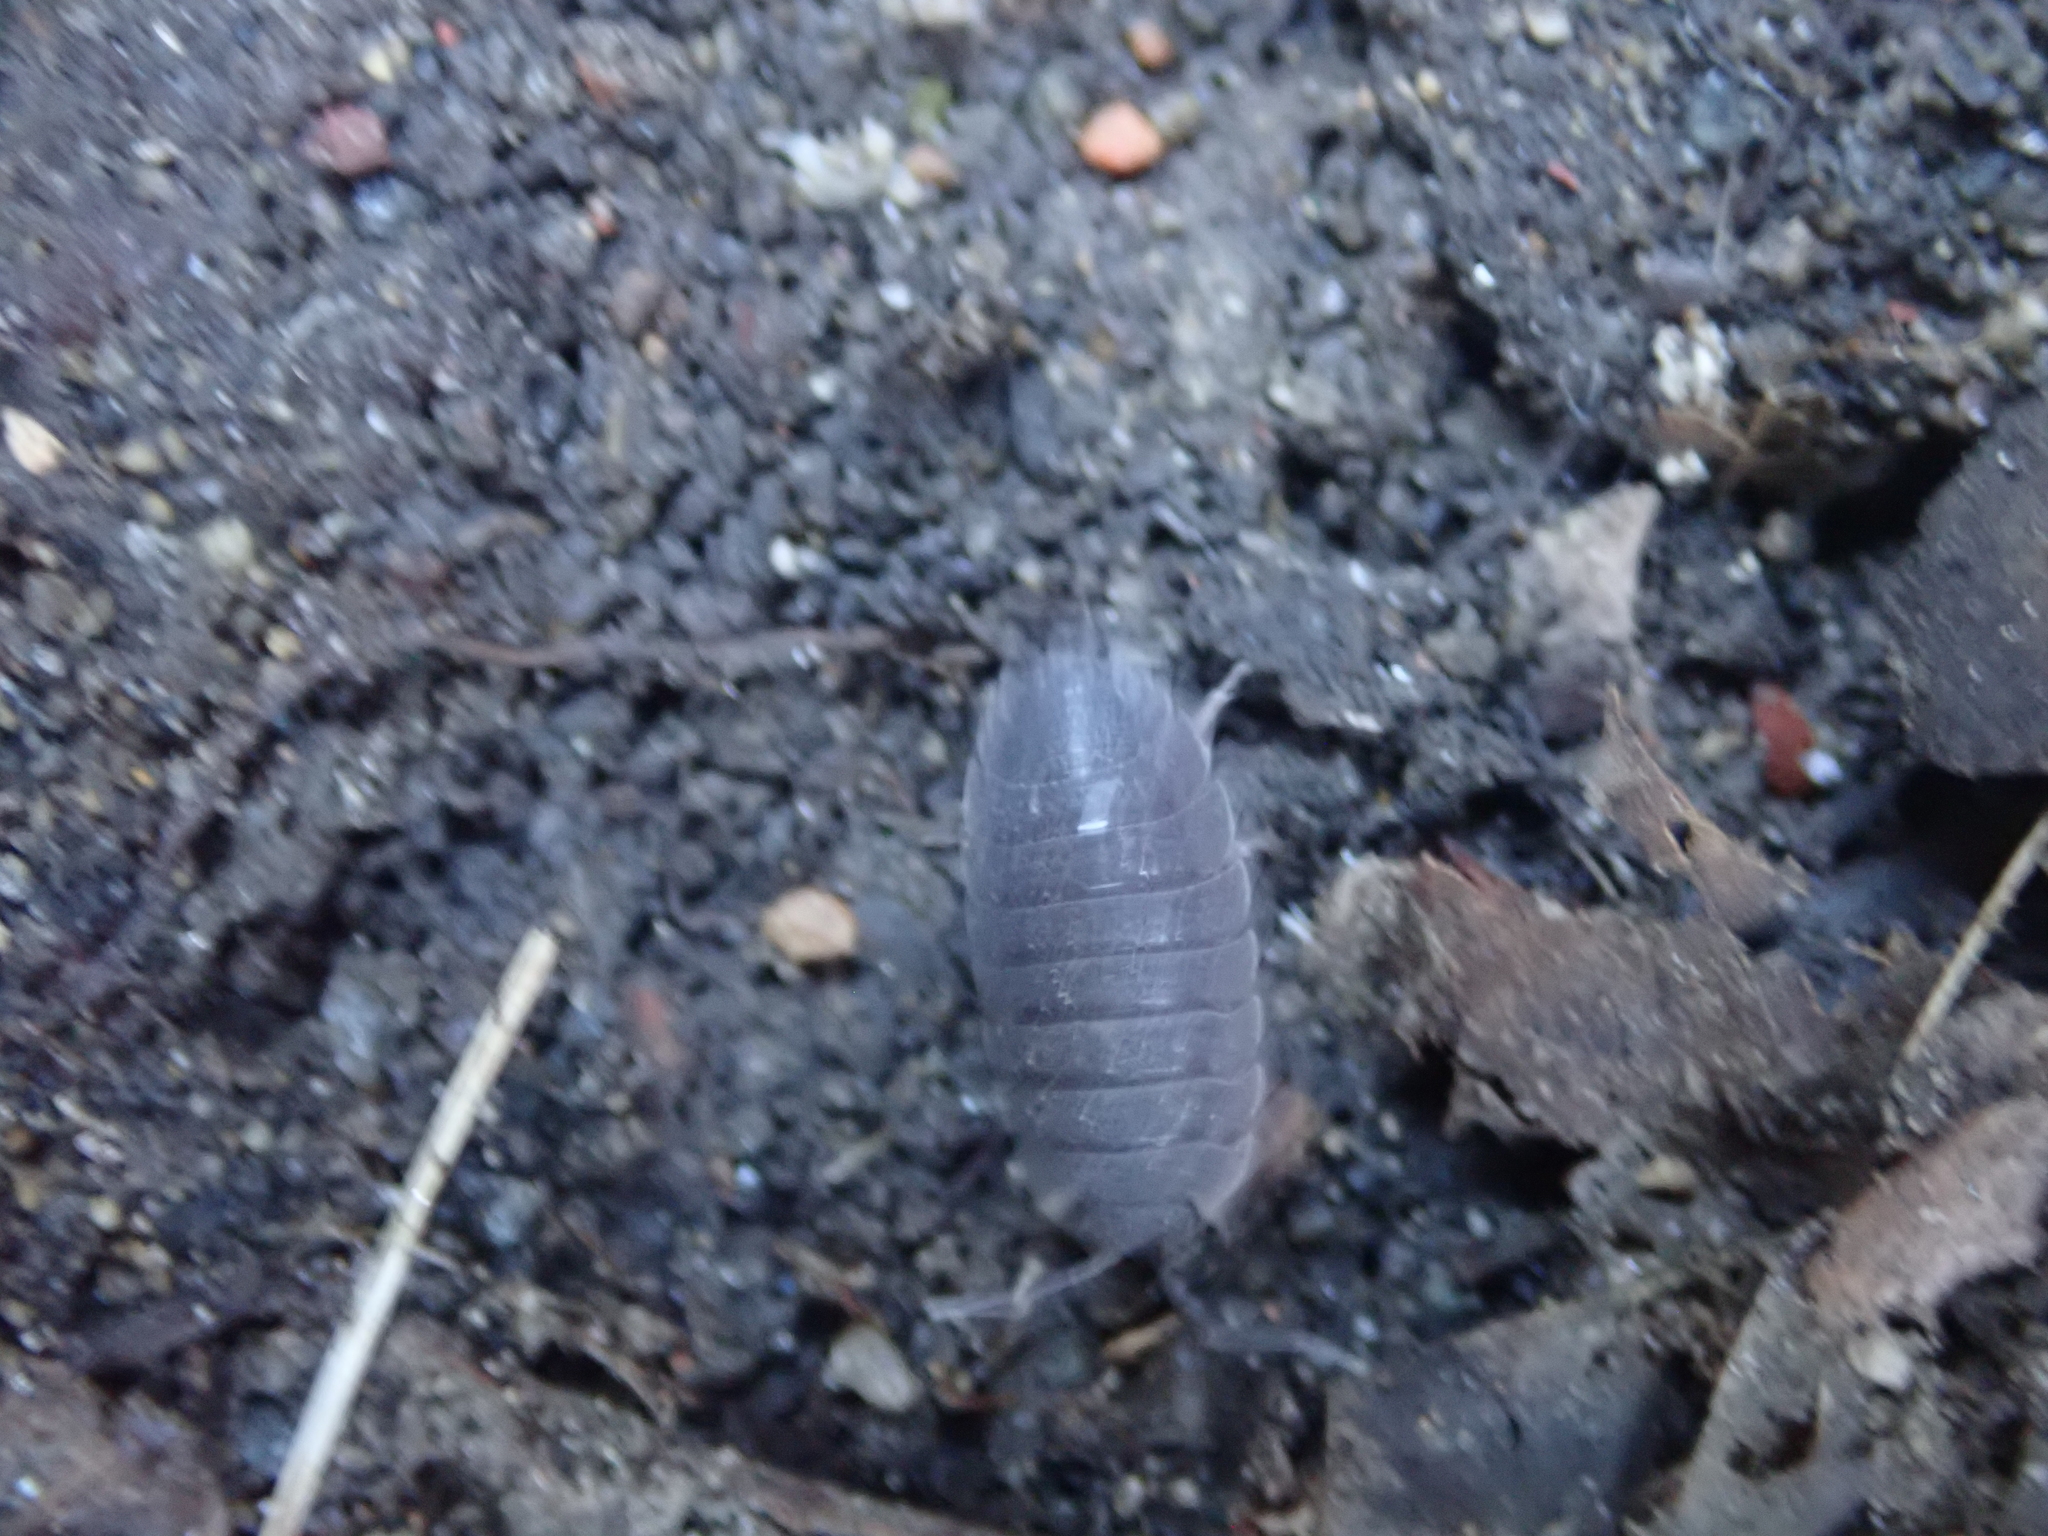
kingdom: Animalia
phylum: Arthropoda
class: Malacostraca
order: Isopoda
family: Porcellionidae
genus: Porcellio
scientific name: Porcellio scaber
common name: Common rough woodlouse
